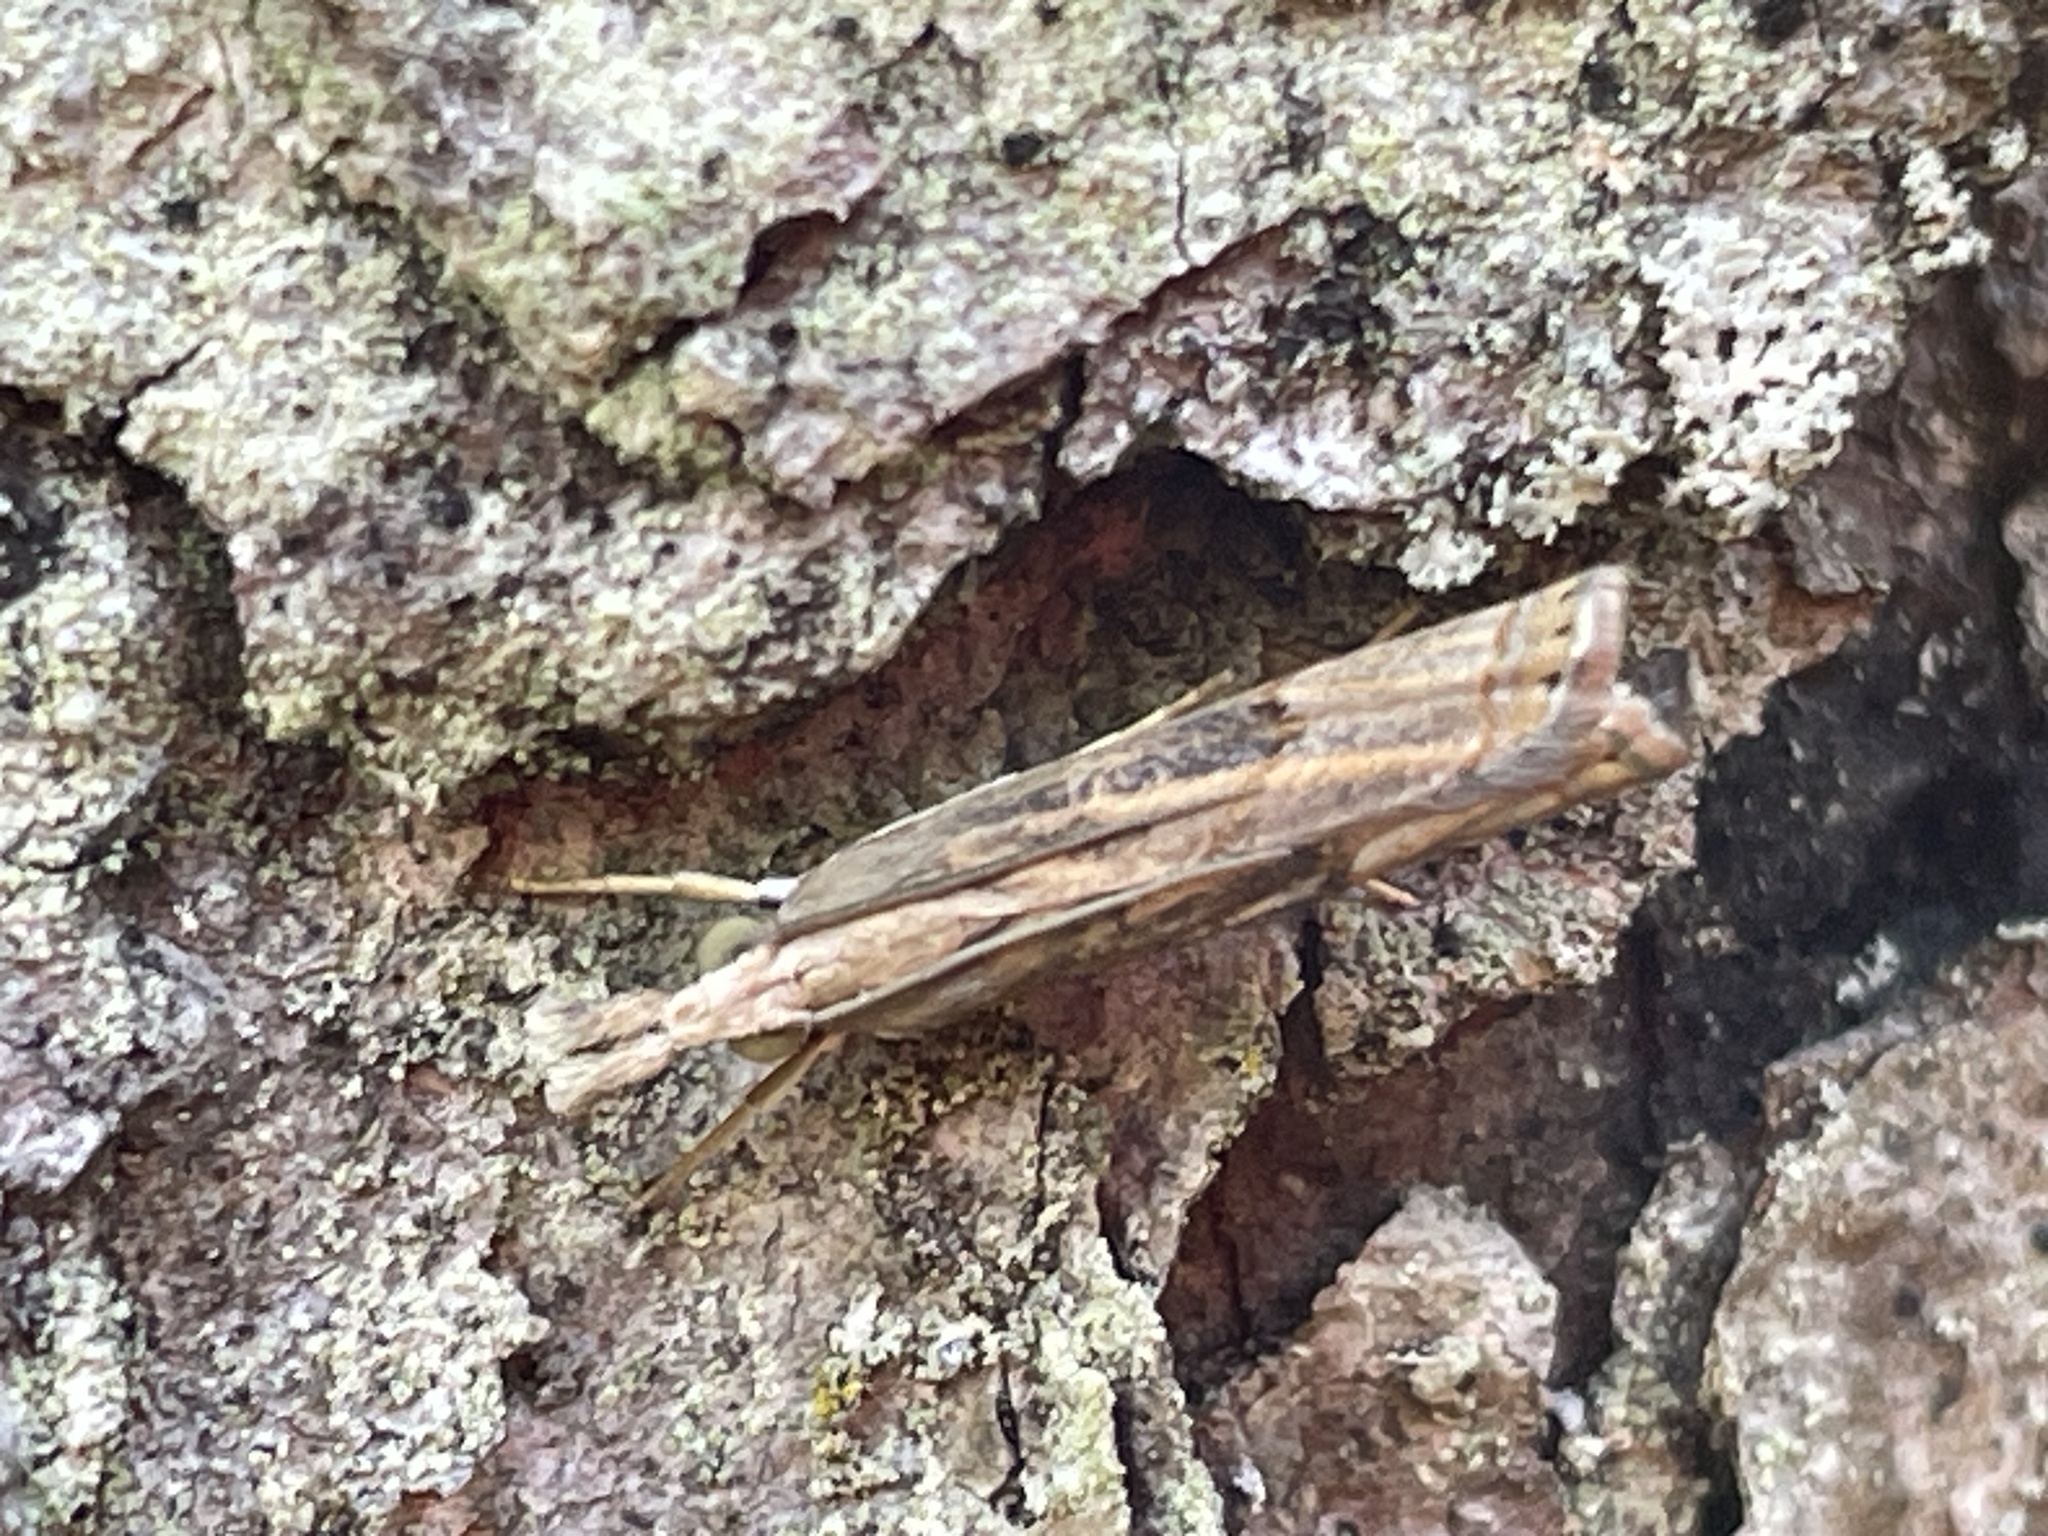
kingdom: Animalia
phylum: Arthropoda
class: Insecta
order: Lepidoptera
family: Crambidae
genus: Parapediasia
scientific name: Parapediasia teterellus
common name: Bluegrass webworm moth
